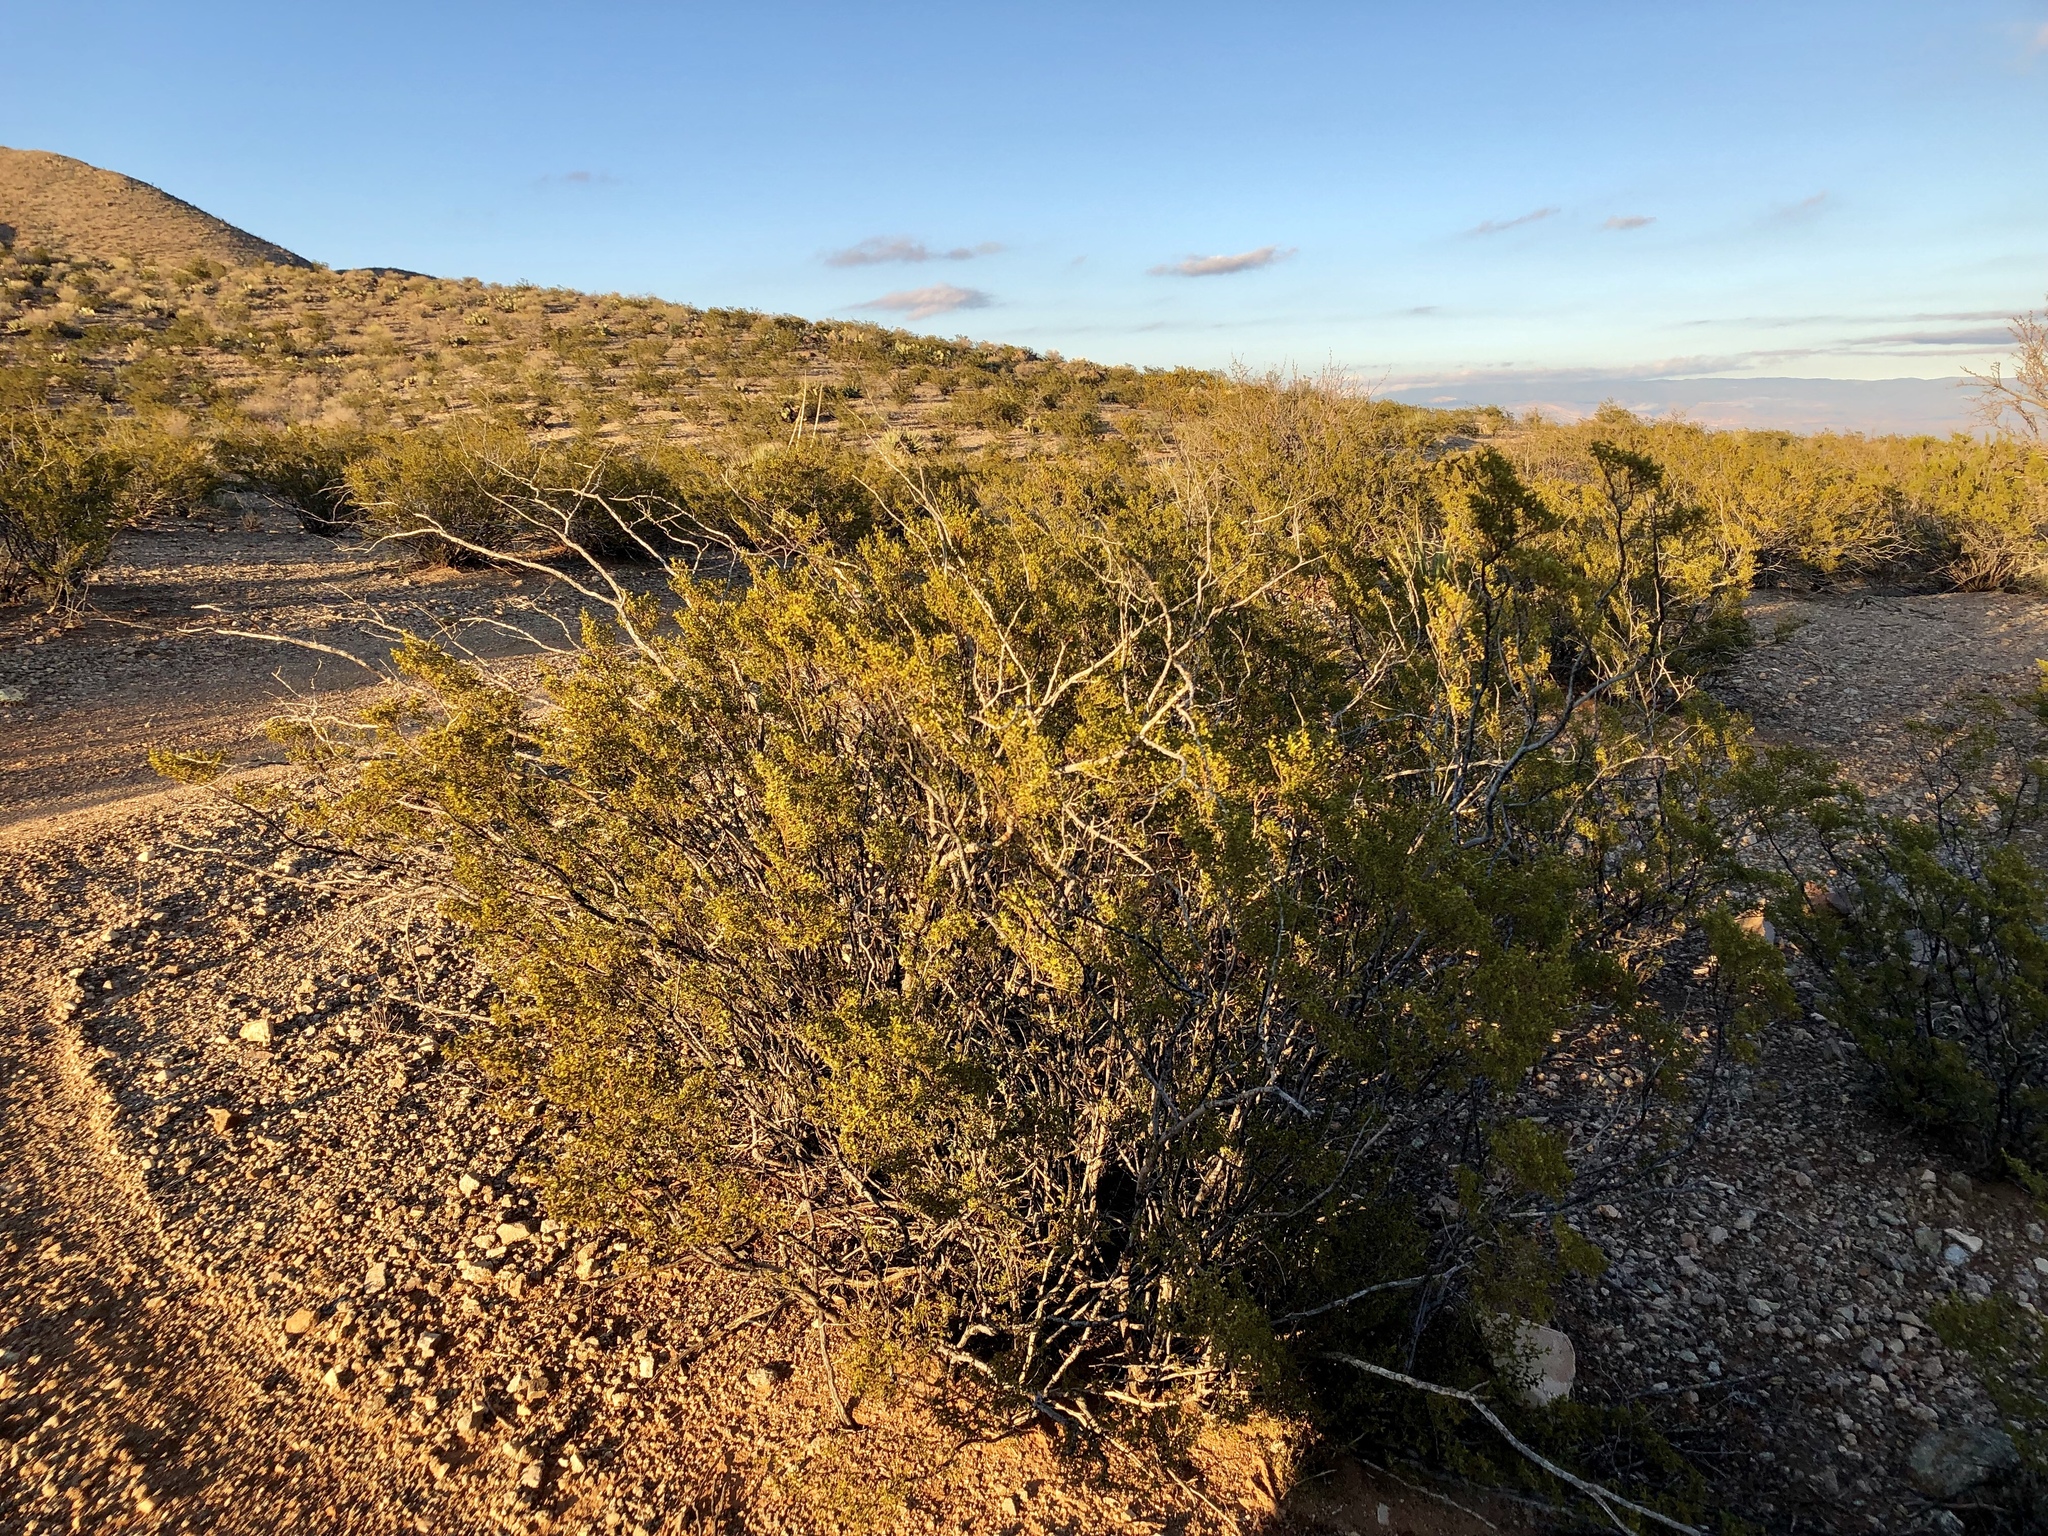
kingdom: Plantae
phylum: Tracheophyta
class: Magnoliopsida
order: Zygophyllales
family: Zygophyllaceae
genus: Larrea
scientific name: Larrea tridentata
